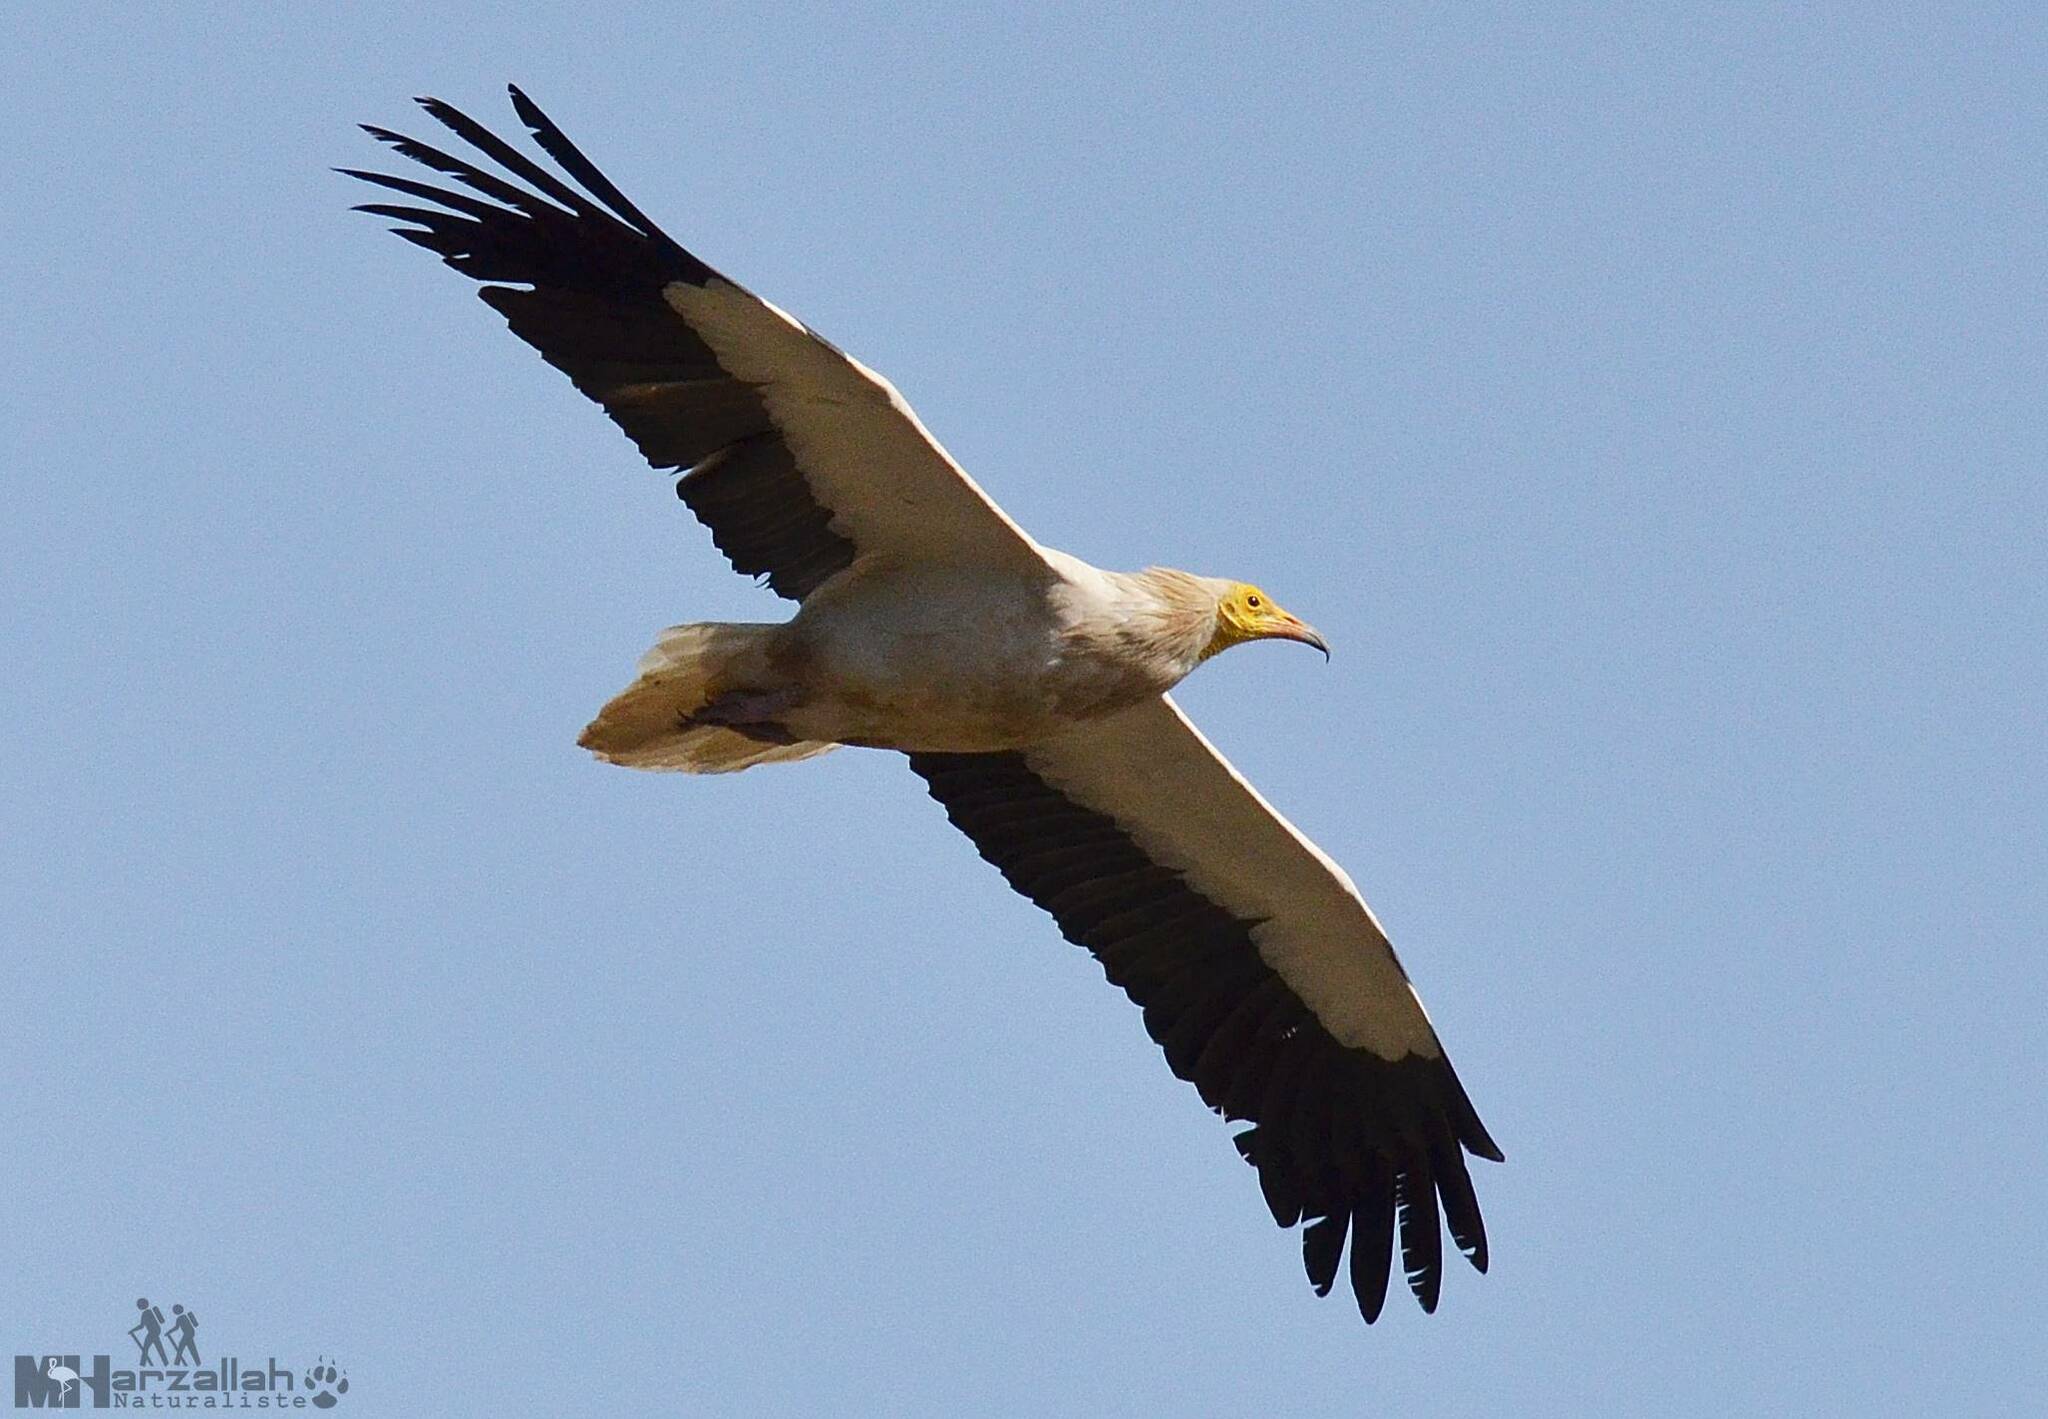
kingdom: Animalia
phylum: Chordata
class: Aves
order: Accipitriformes
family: Accipitridae
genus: Neophron
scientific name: Neophron percnopterus
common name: Egyptian vulture
